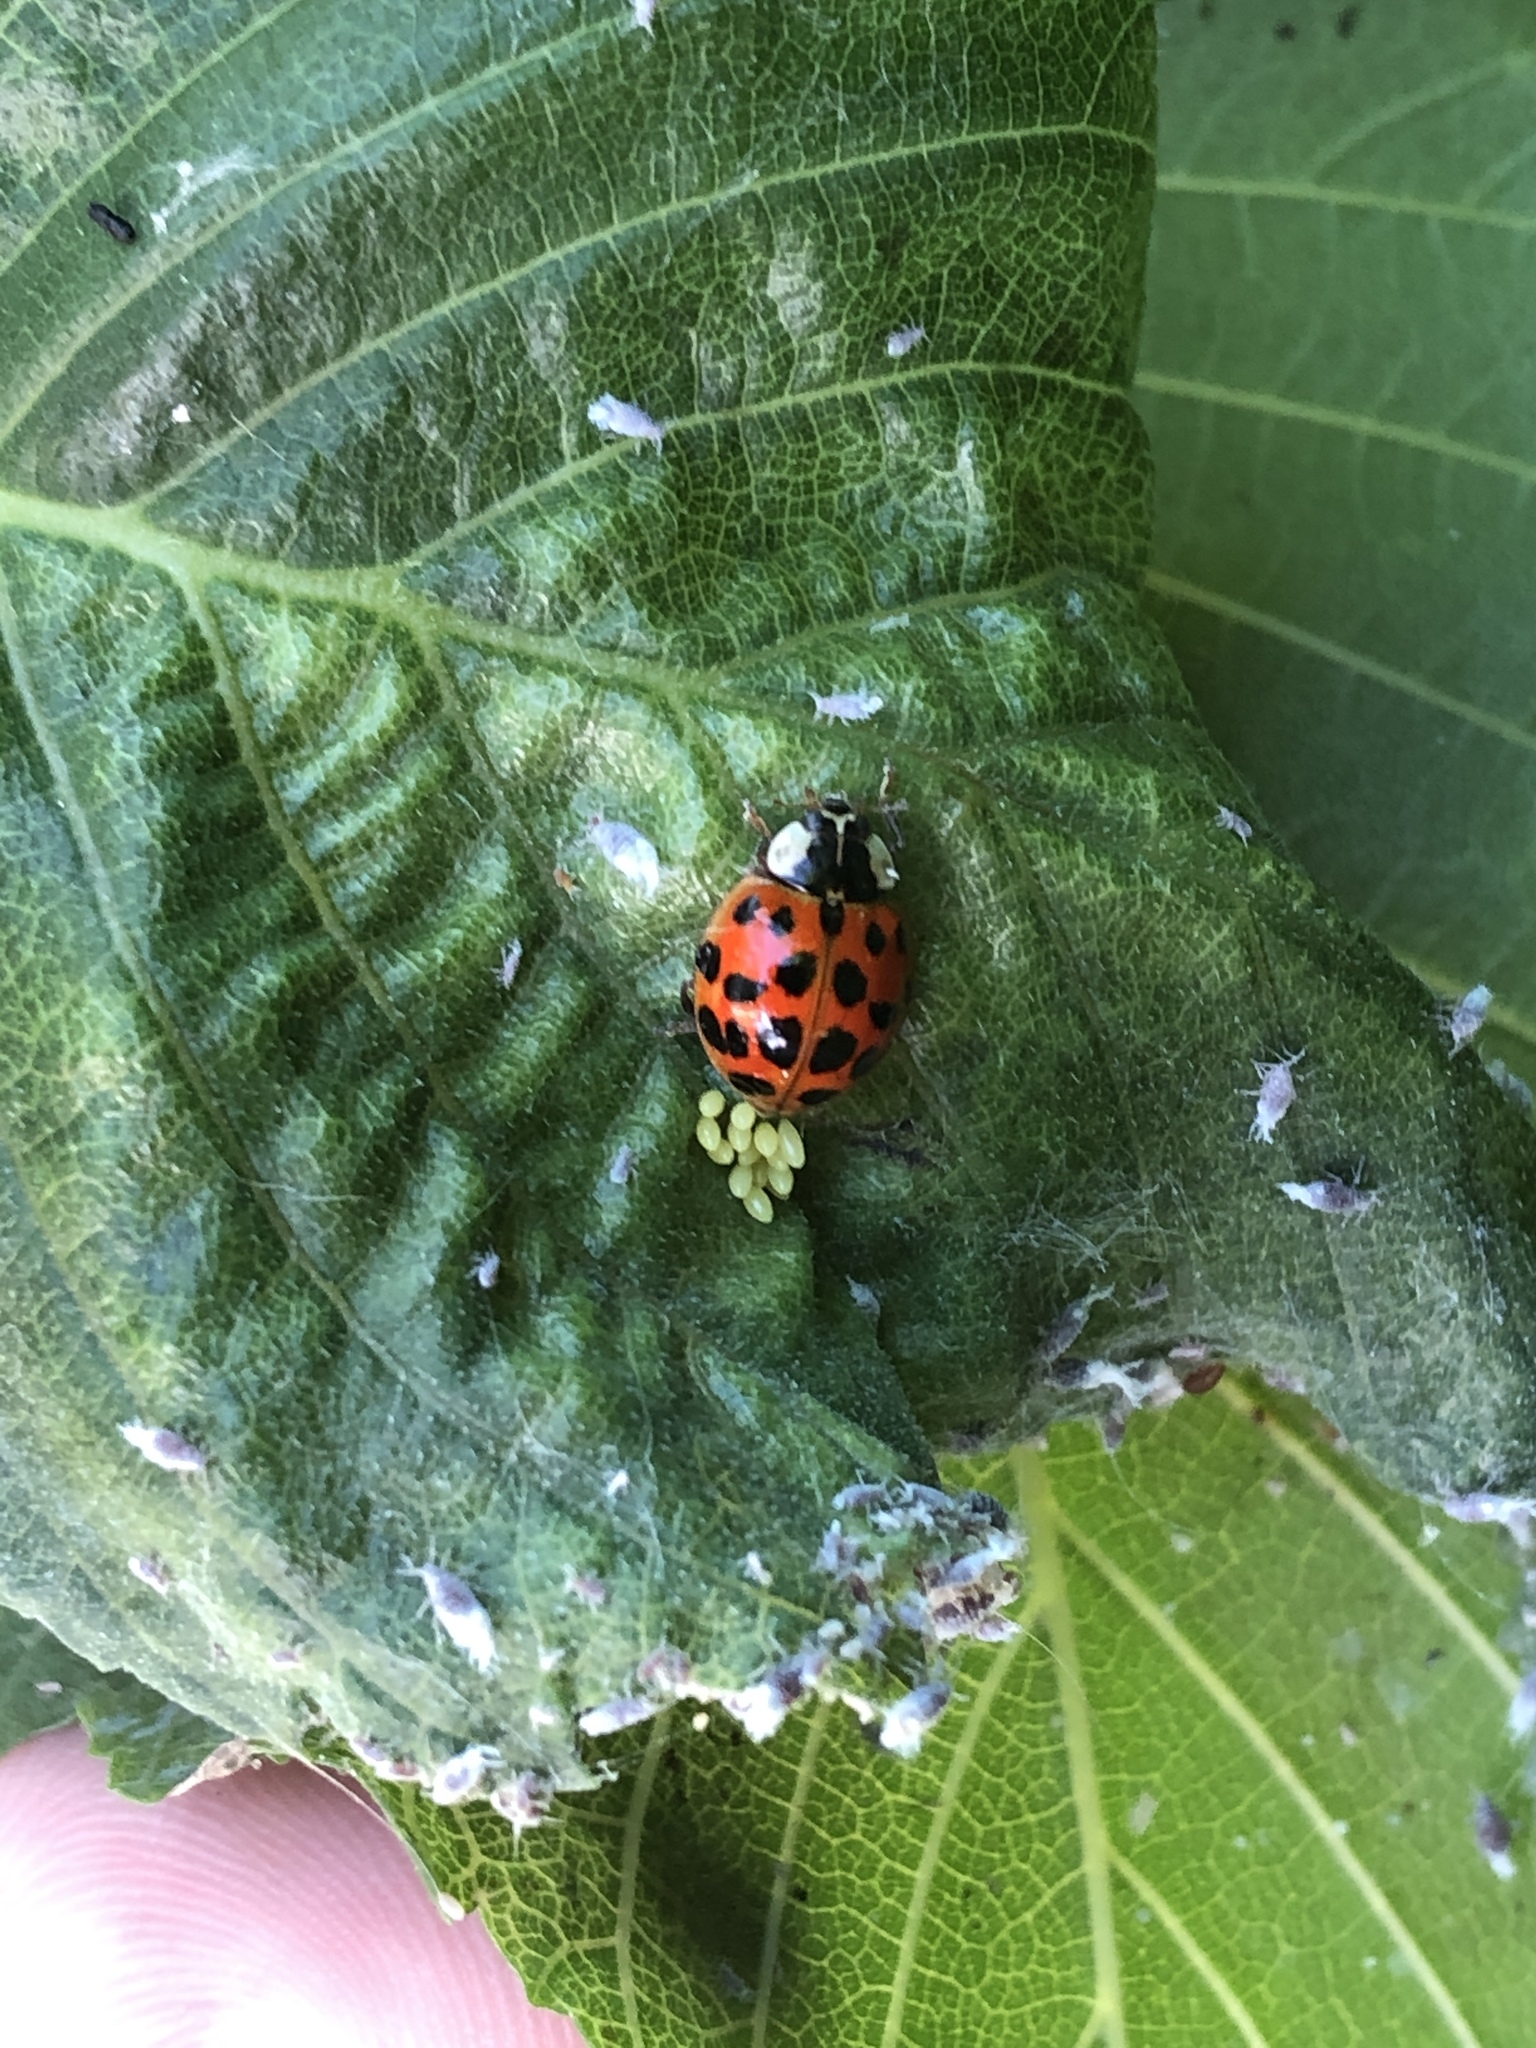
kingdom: Animalia
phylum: Arthropoda
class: Insecta
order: Coleoptera
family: Coccinellidae
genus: Harmonia
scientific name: Harmonia axyridis
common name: Harlequin ladybird
